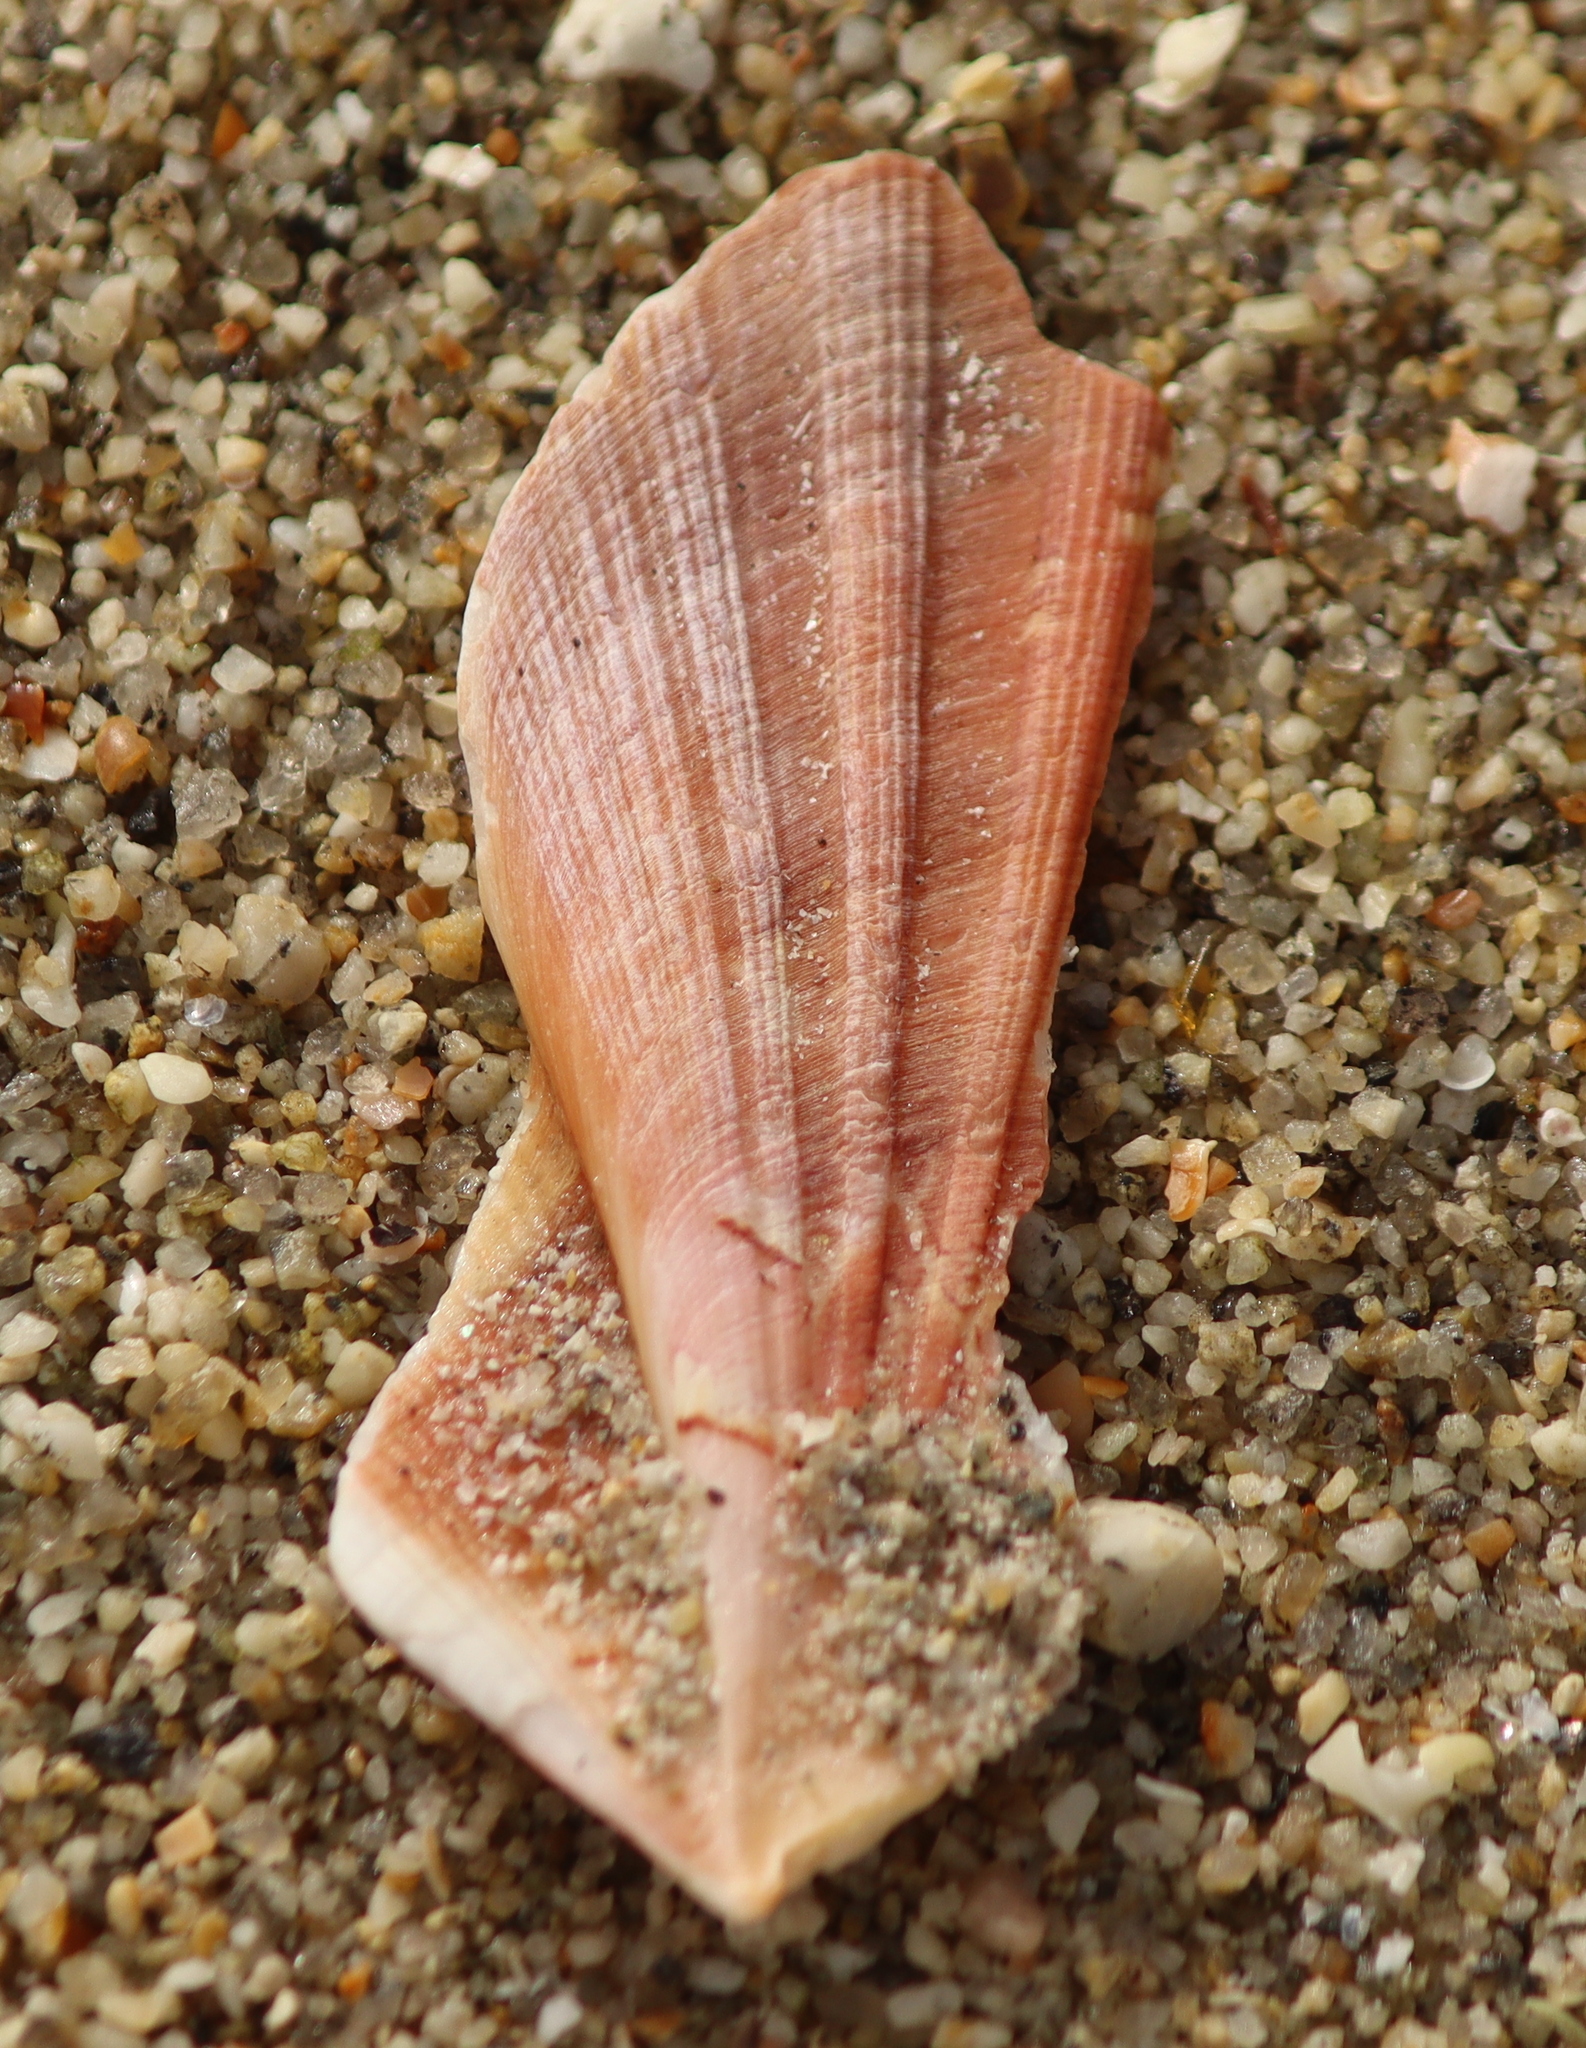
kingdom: Animalia
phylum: Mollusca
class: Bivalvia
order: Pectinida
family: Pectinidae
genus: Pecten
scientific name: Pecten maximus
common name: Great scallop
